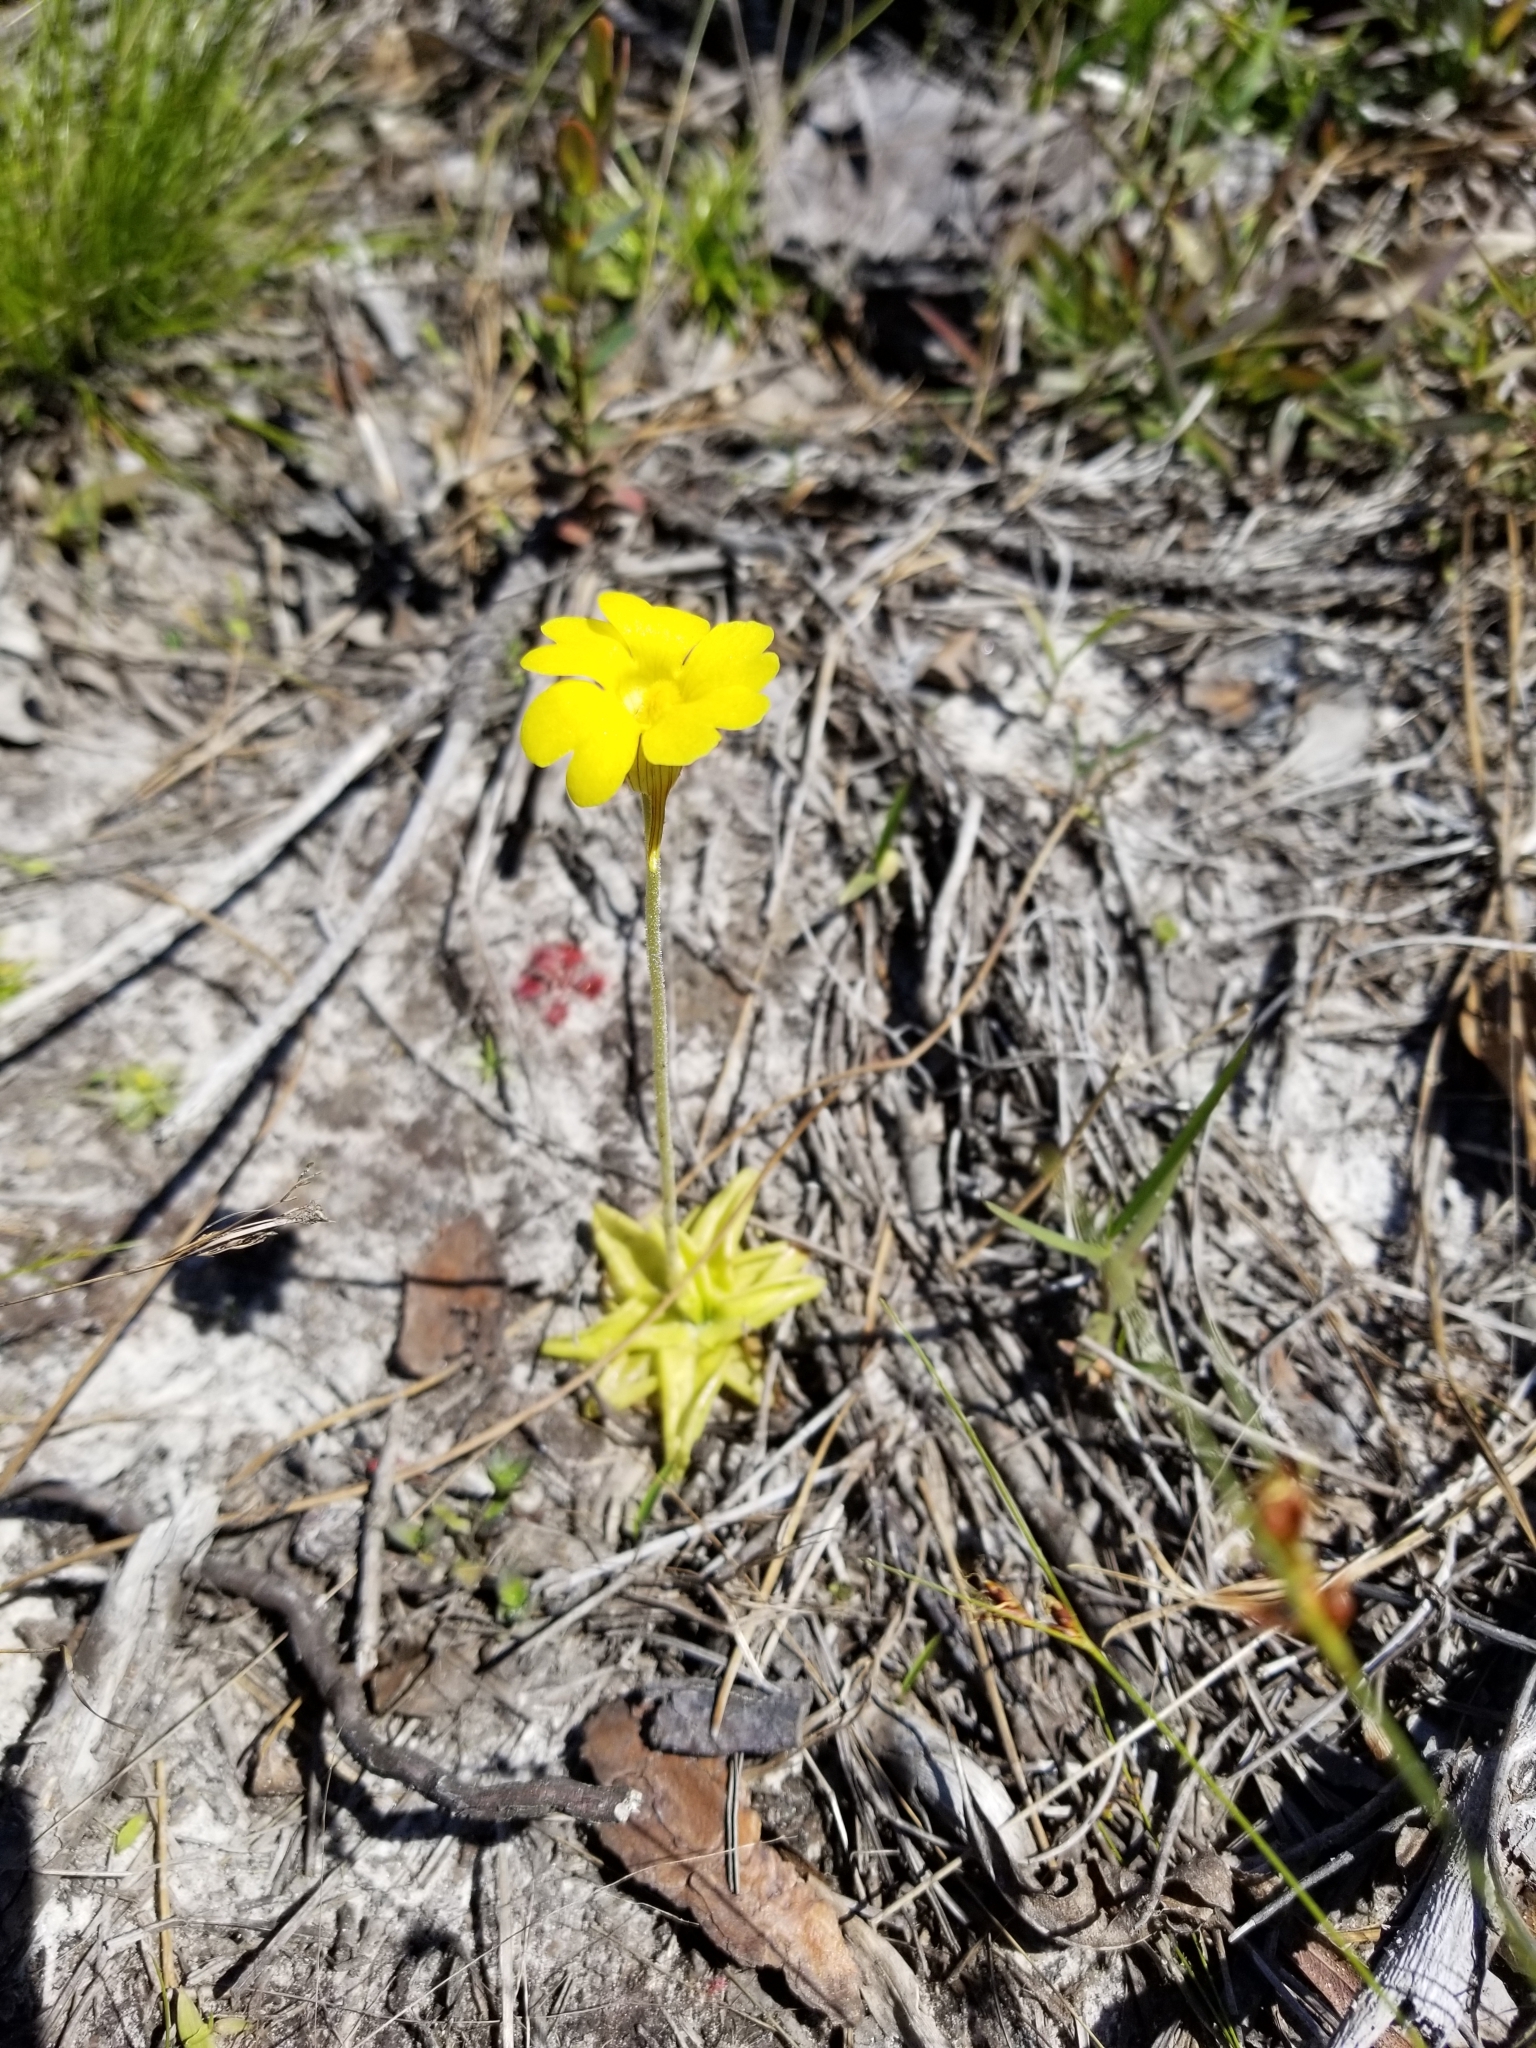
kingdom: Plantae
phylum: Tracheophyta
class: Magnoliopsida
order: Lamiales
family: Lentibulariaceae
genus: Pinguicula
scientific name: Pinguicula lutea
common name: Yellow butterwort
